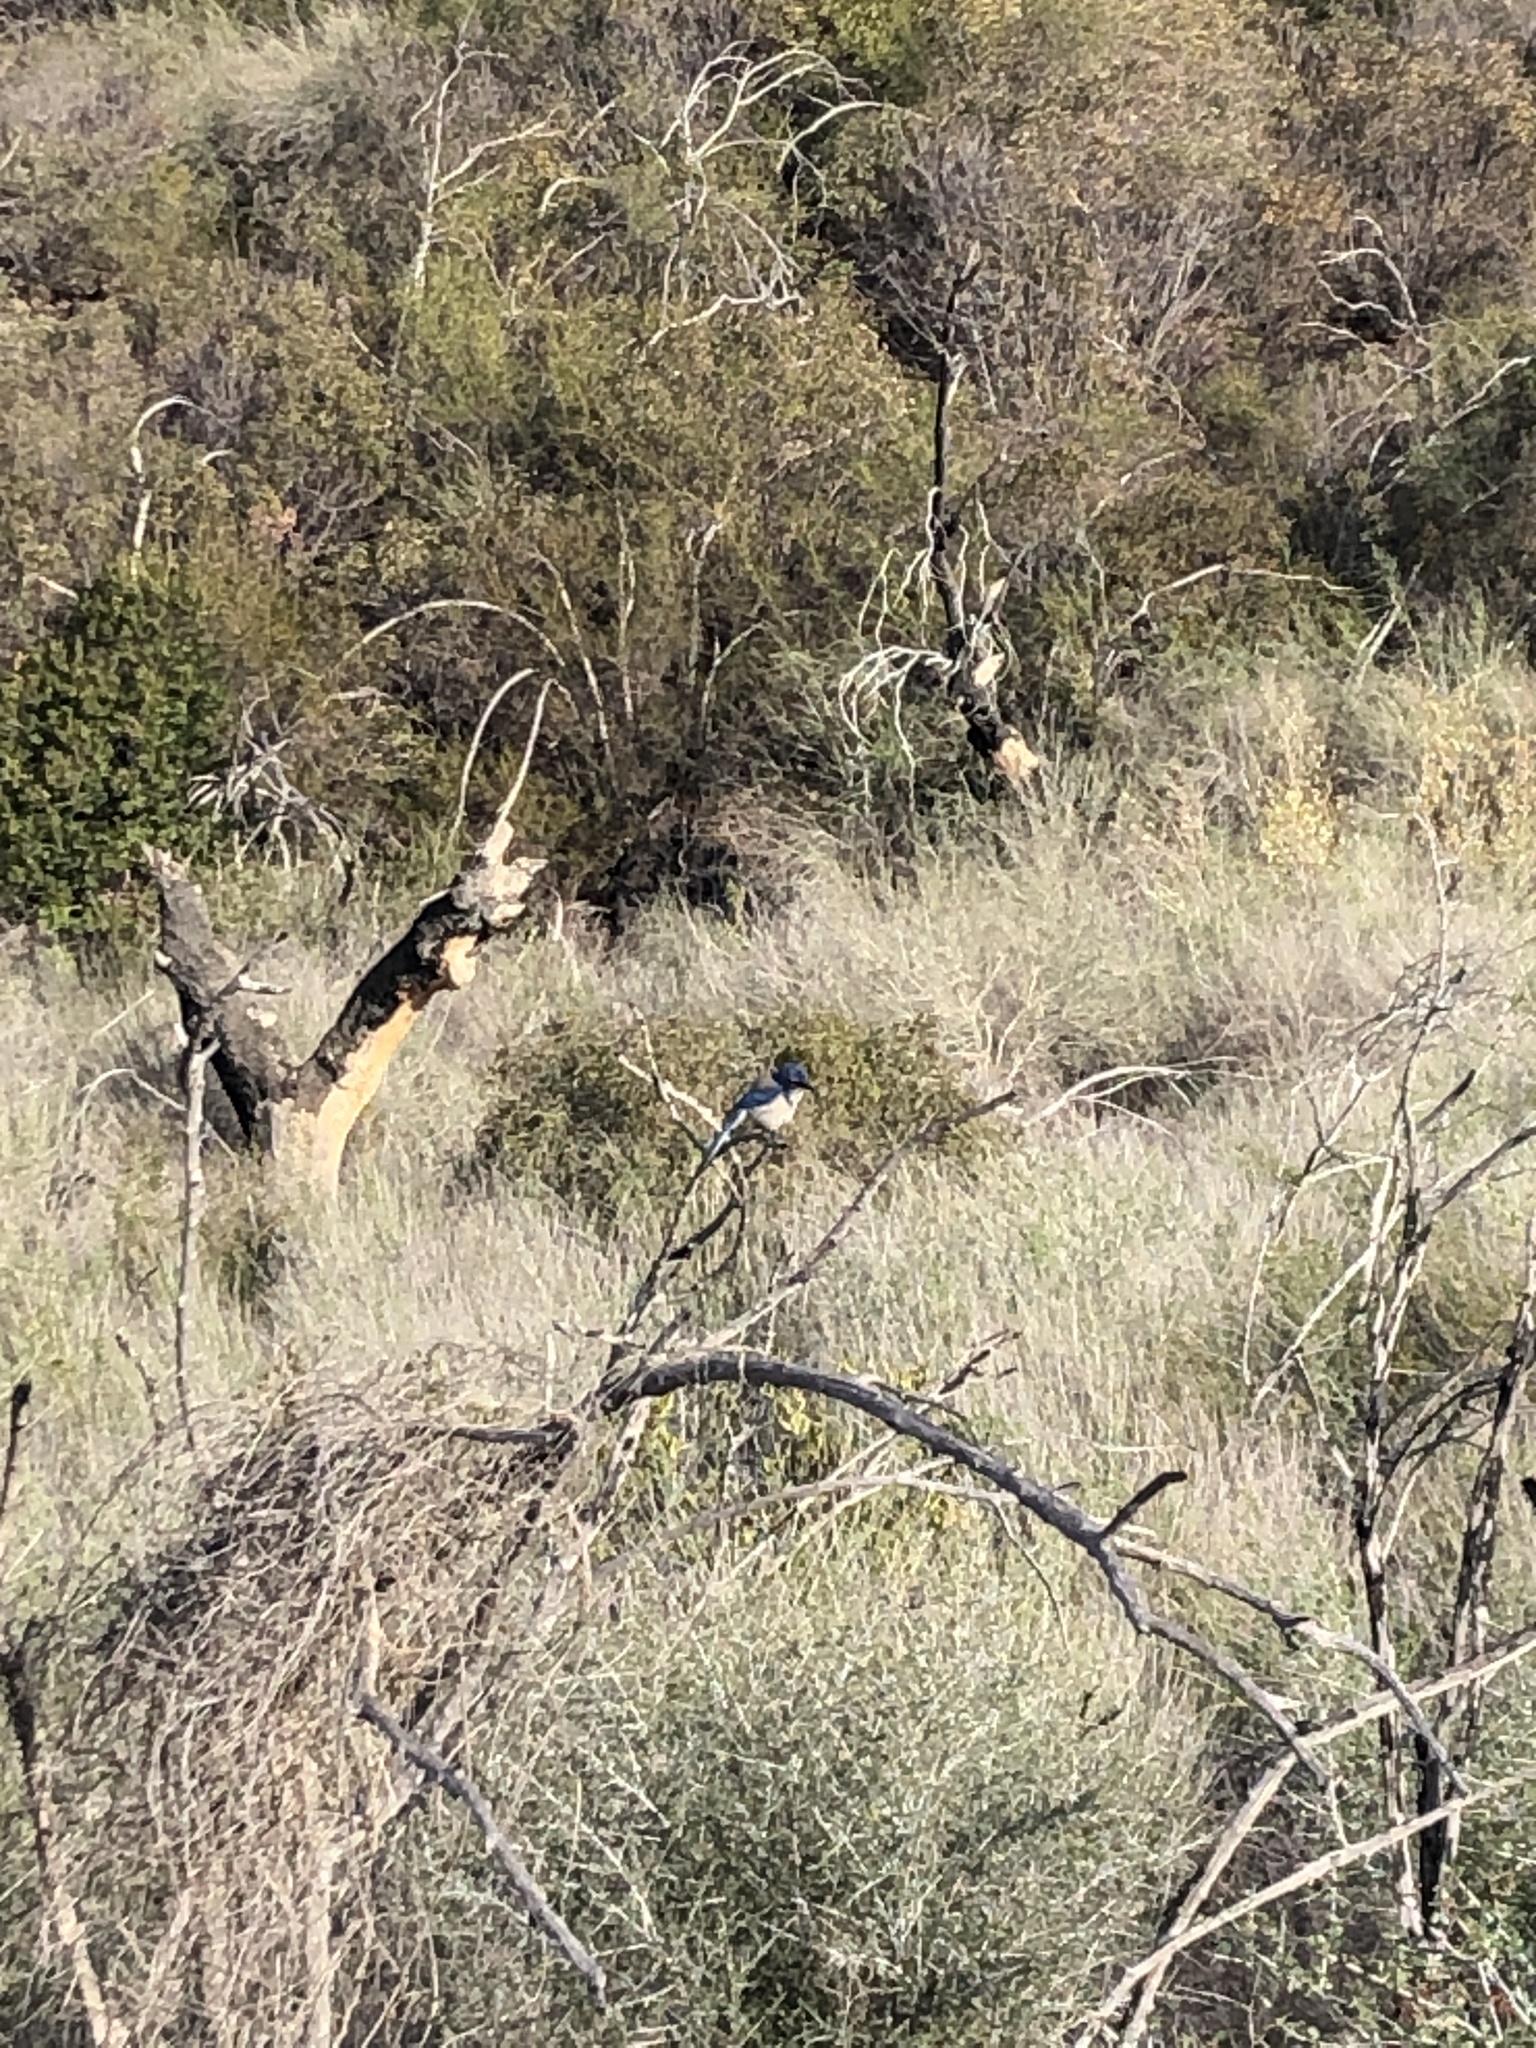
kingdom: Animalia
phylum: Chordata
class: Aves
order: Passeriformes
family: Corvidae
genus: Aphelocoma
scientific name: Aphelocoma californica
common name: California scrub-jay
